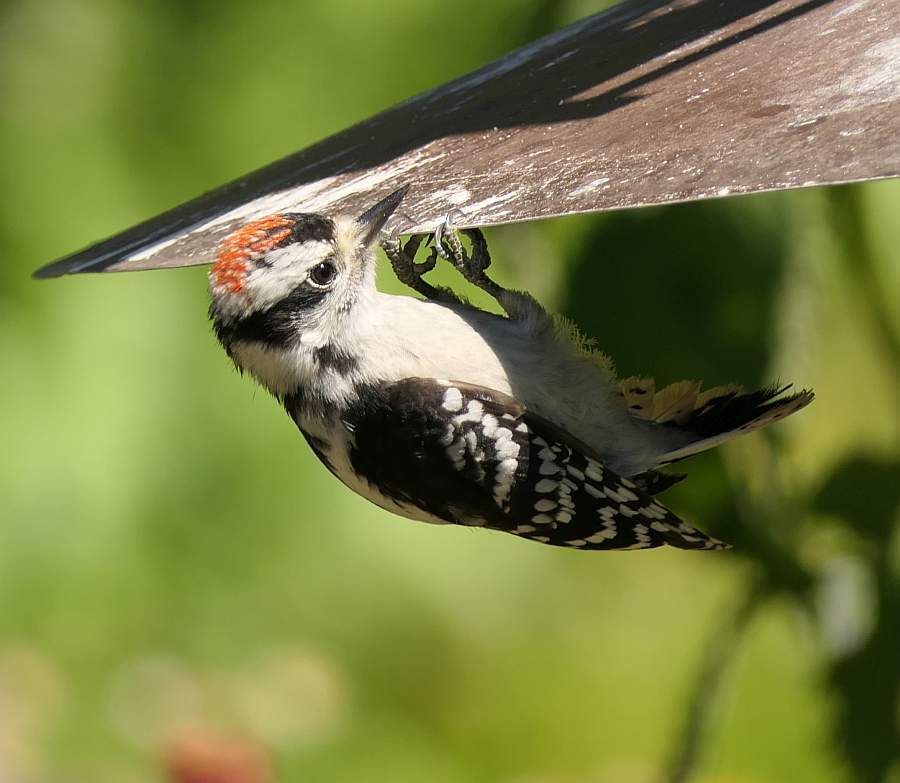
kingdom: Animalia
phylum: Chordata
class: Aves
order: Piciformes
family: Picidae
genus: Dryobates
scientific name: Dryobates pubescens
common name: Downy woodpecker
